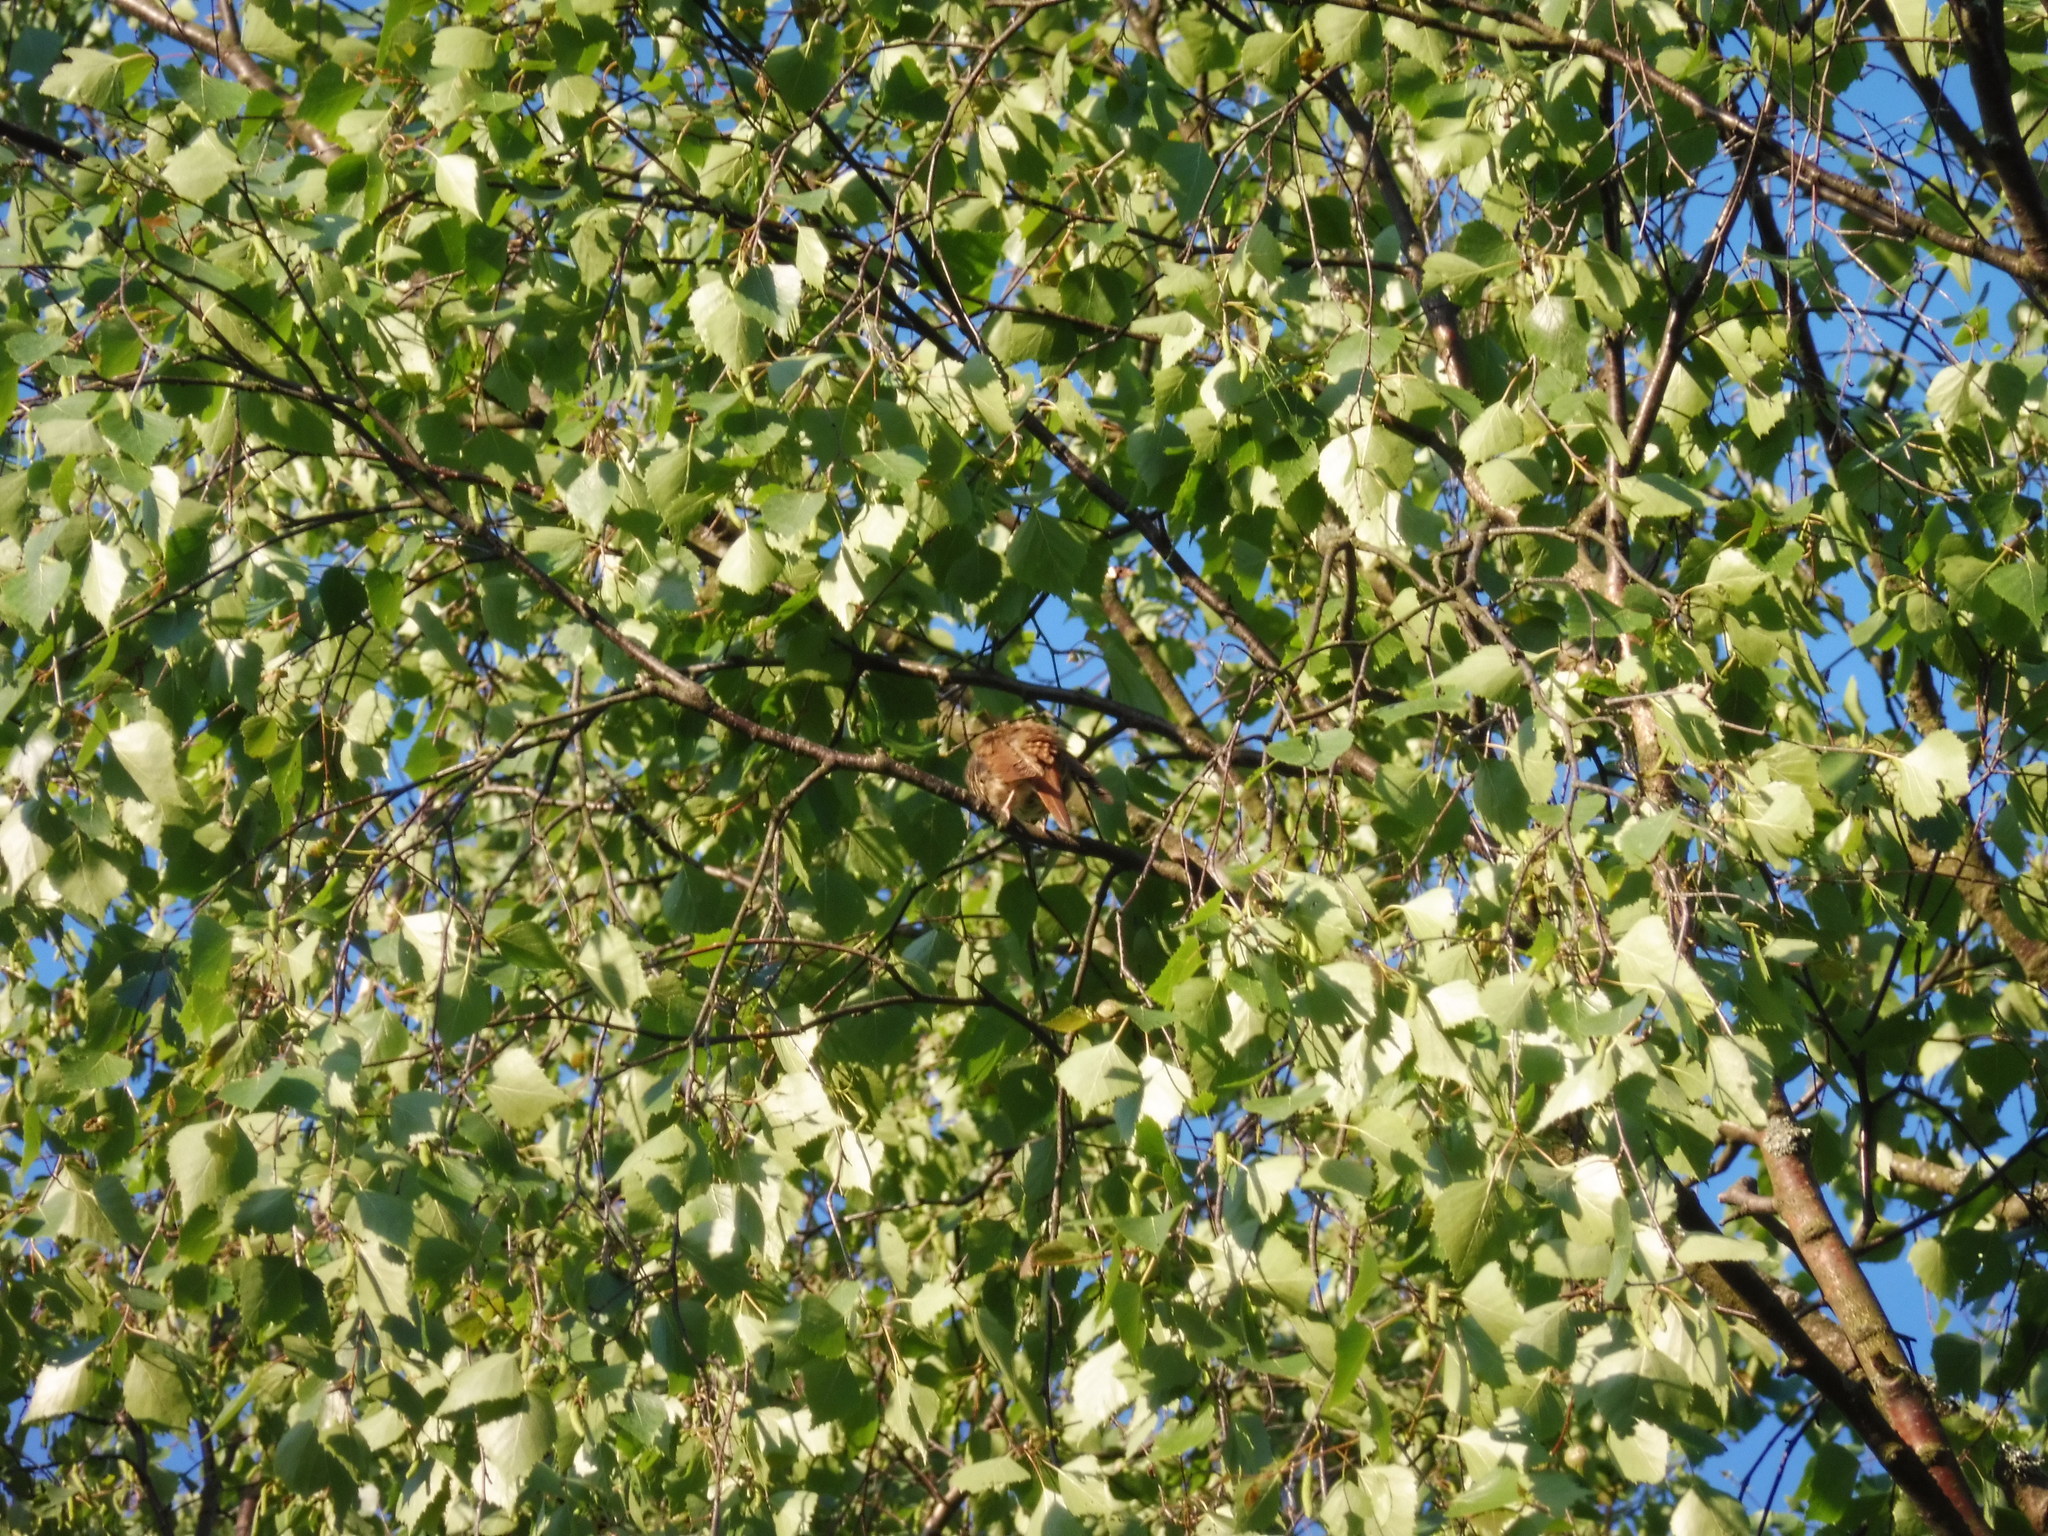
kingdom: Animalia
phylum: Chordata
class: Aves
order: Passeriformes
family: Muscicapidae
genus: Luscinia
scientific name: Luscinia luscinia
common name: Thrush nightingale
